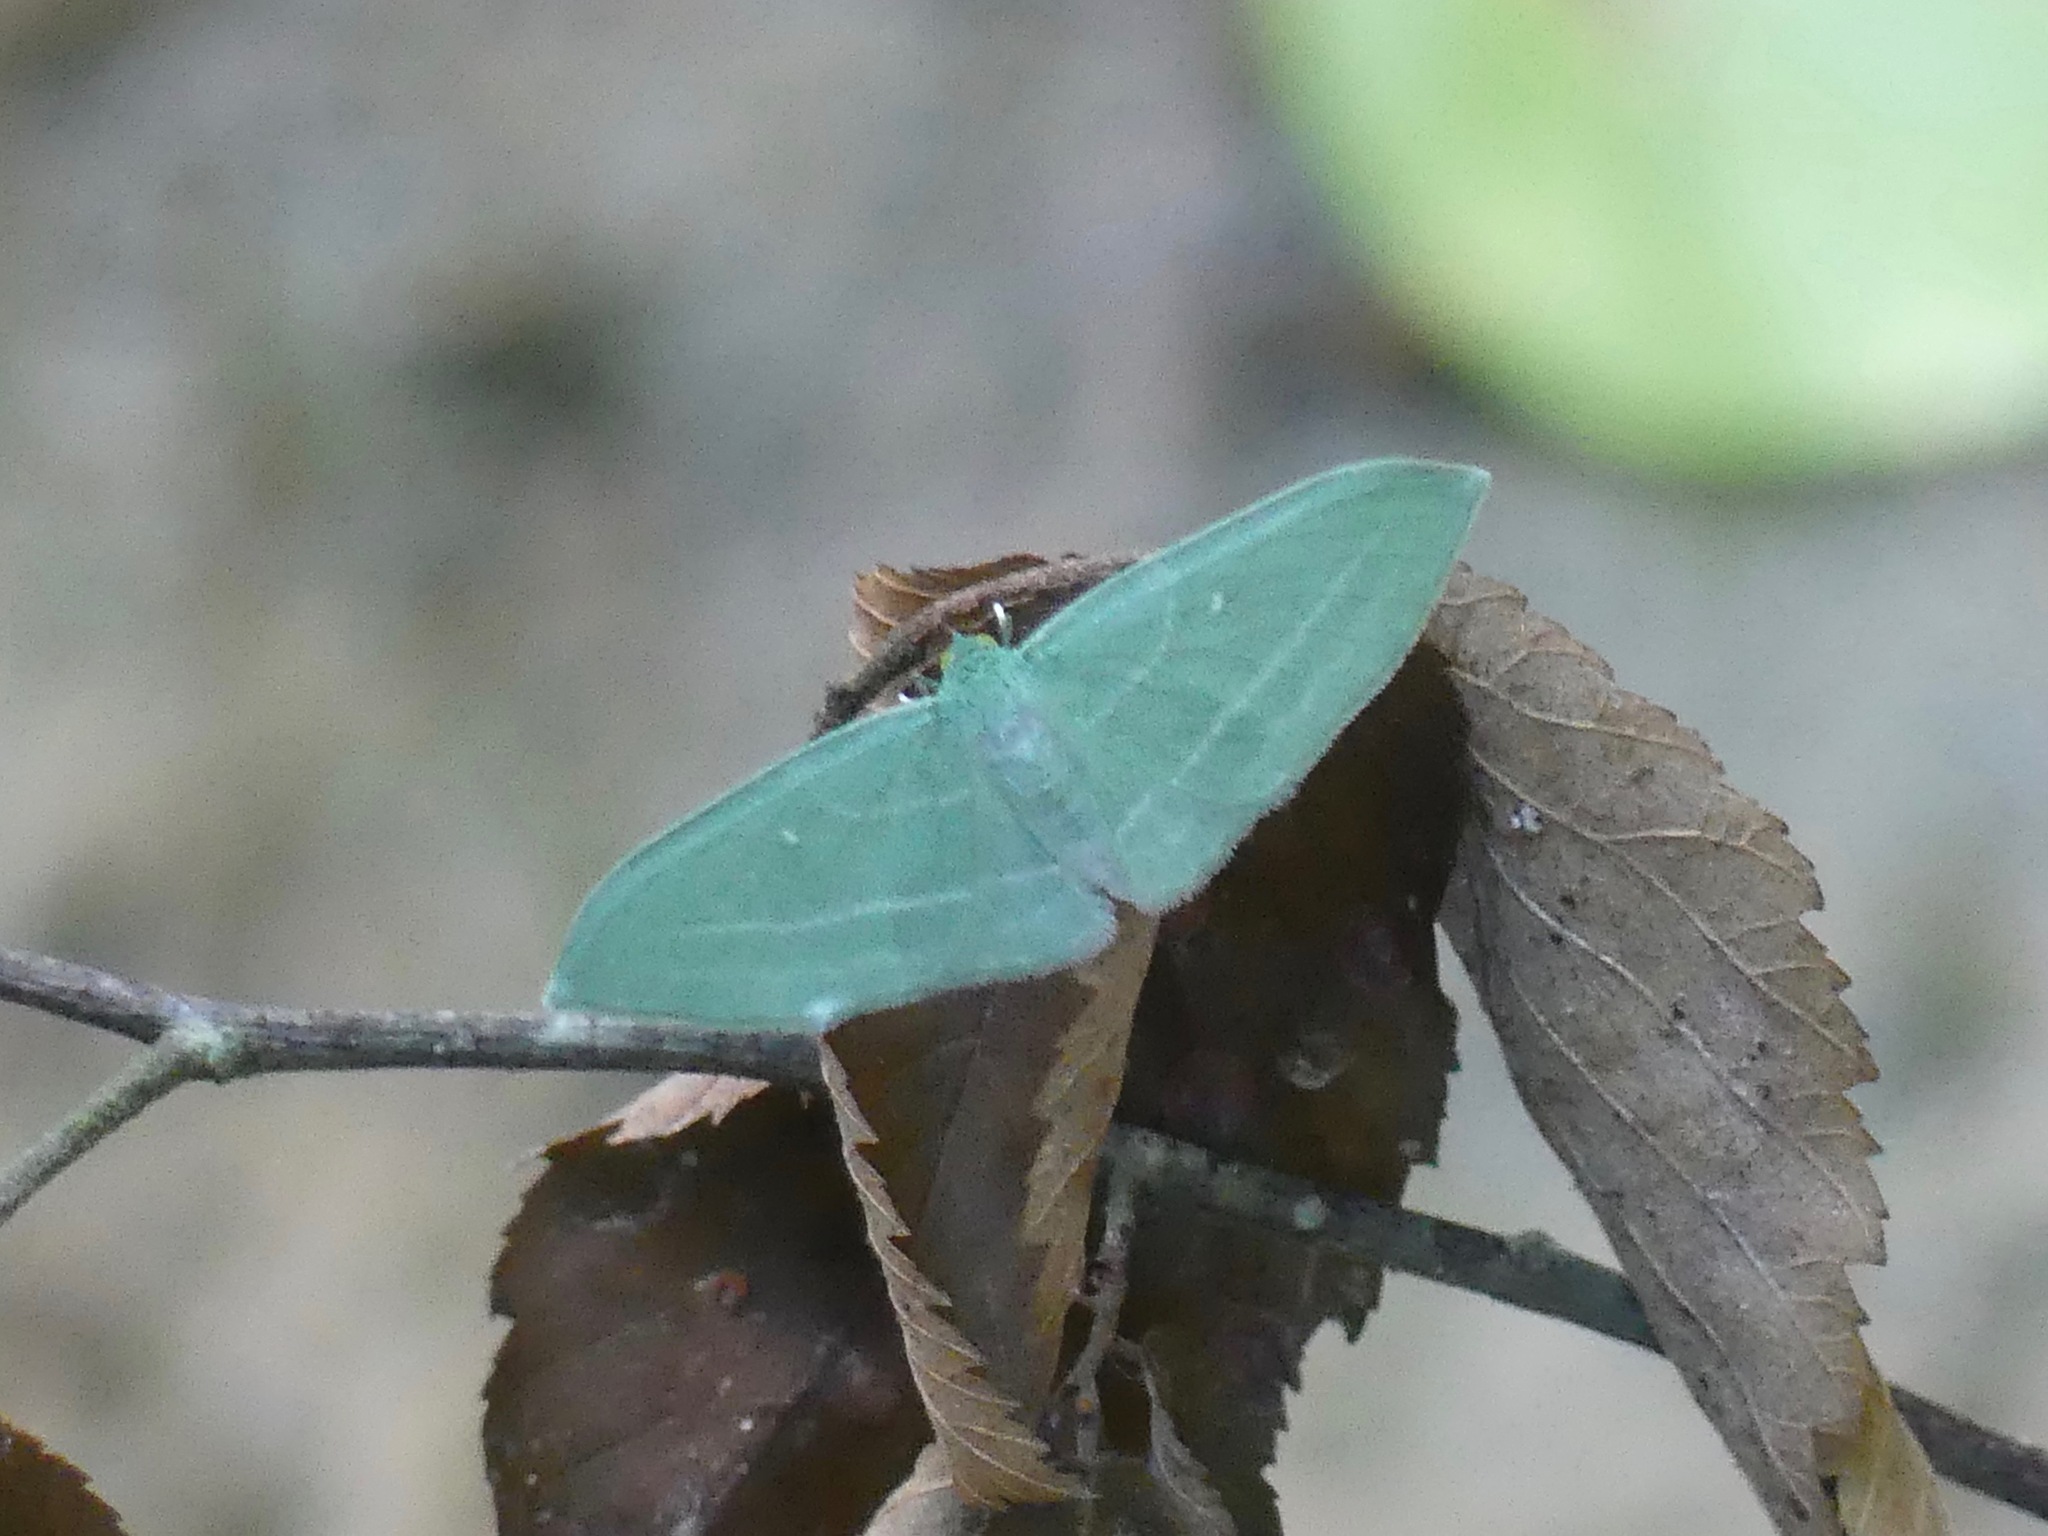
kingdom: Animalia
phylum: Arthropoda
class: Insecta
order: Lepidoptera
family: Geometridae
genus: Dyspteris
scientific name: Dyspteris abortivaria
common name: Bad-wing
